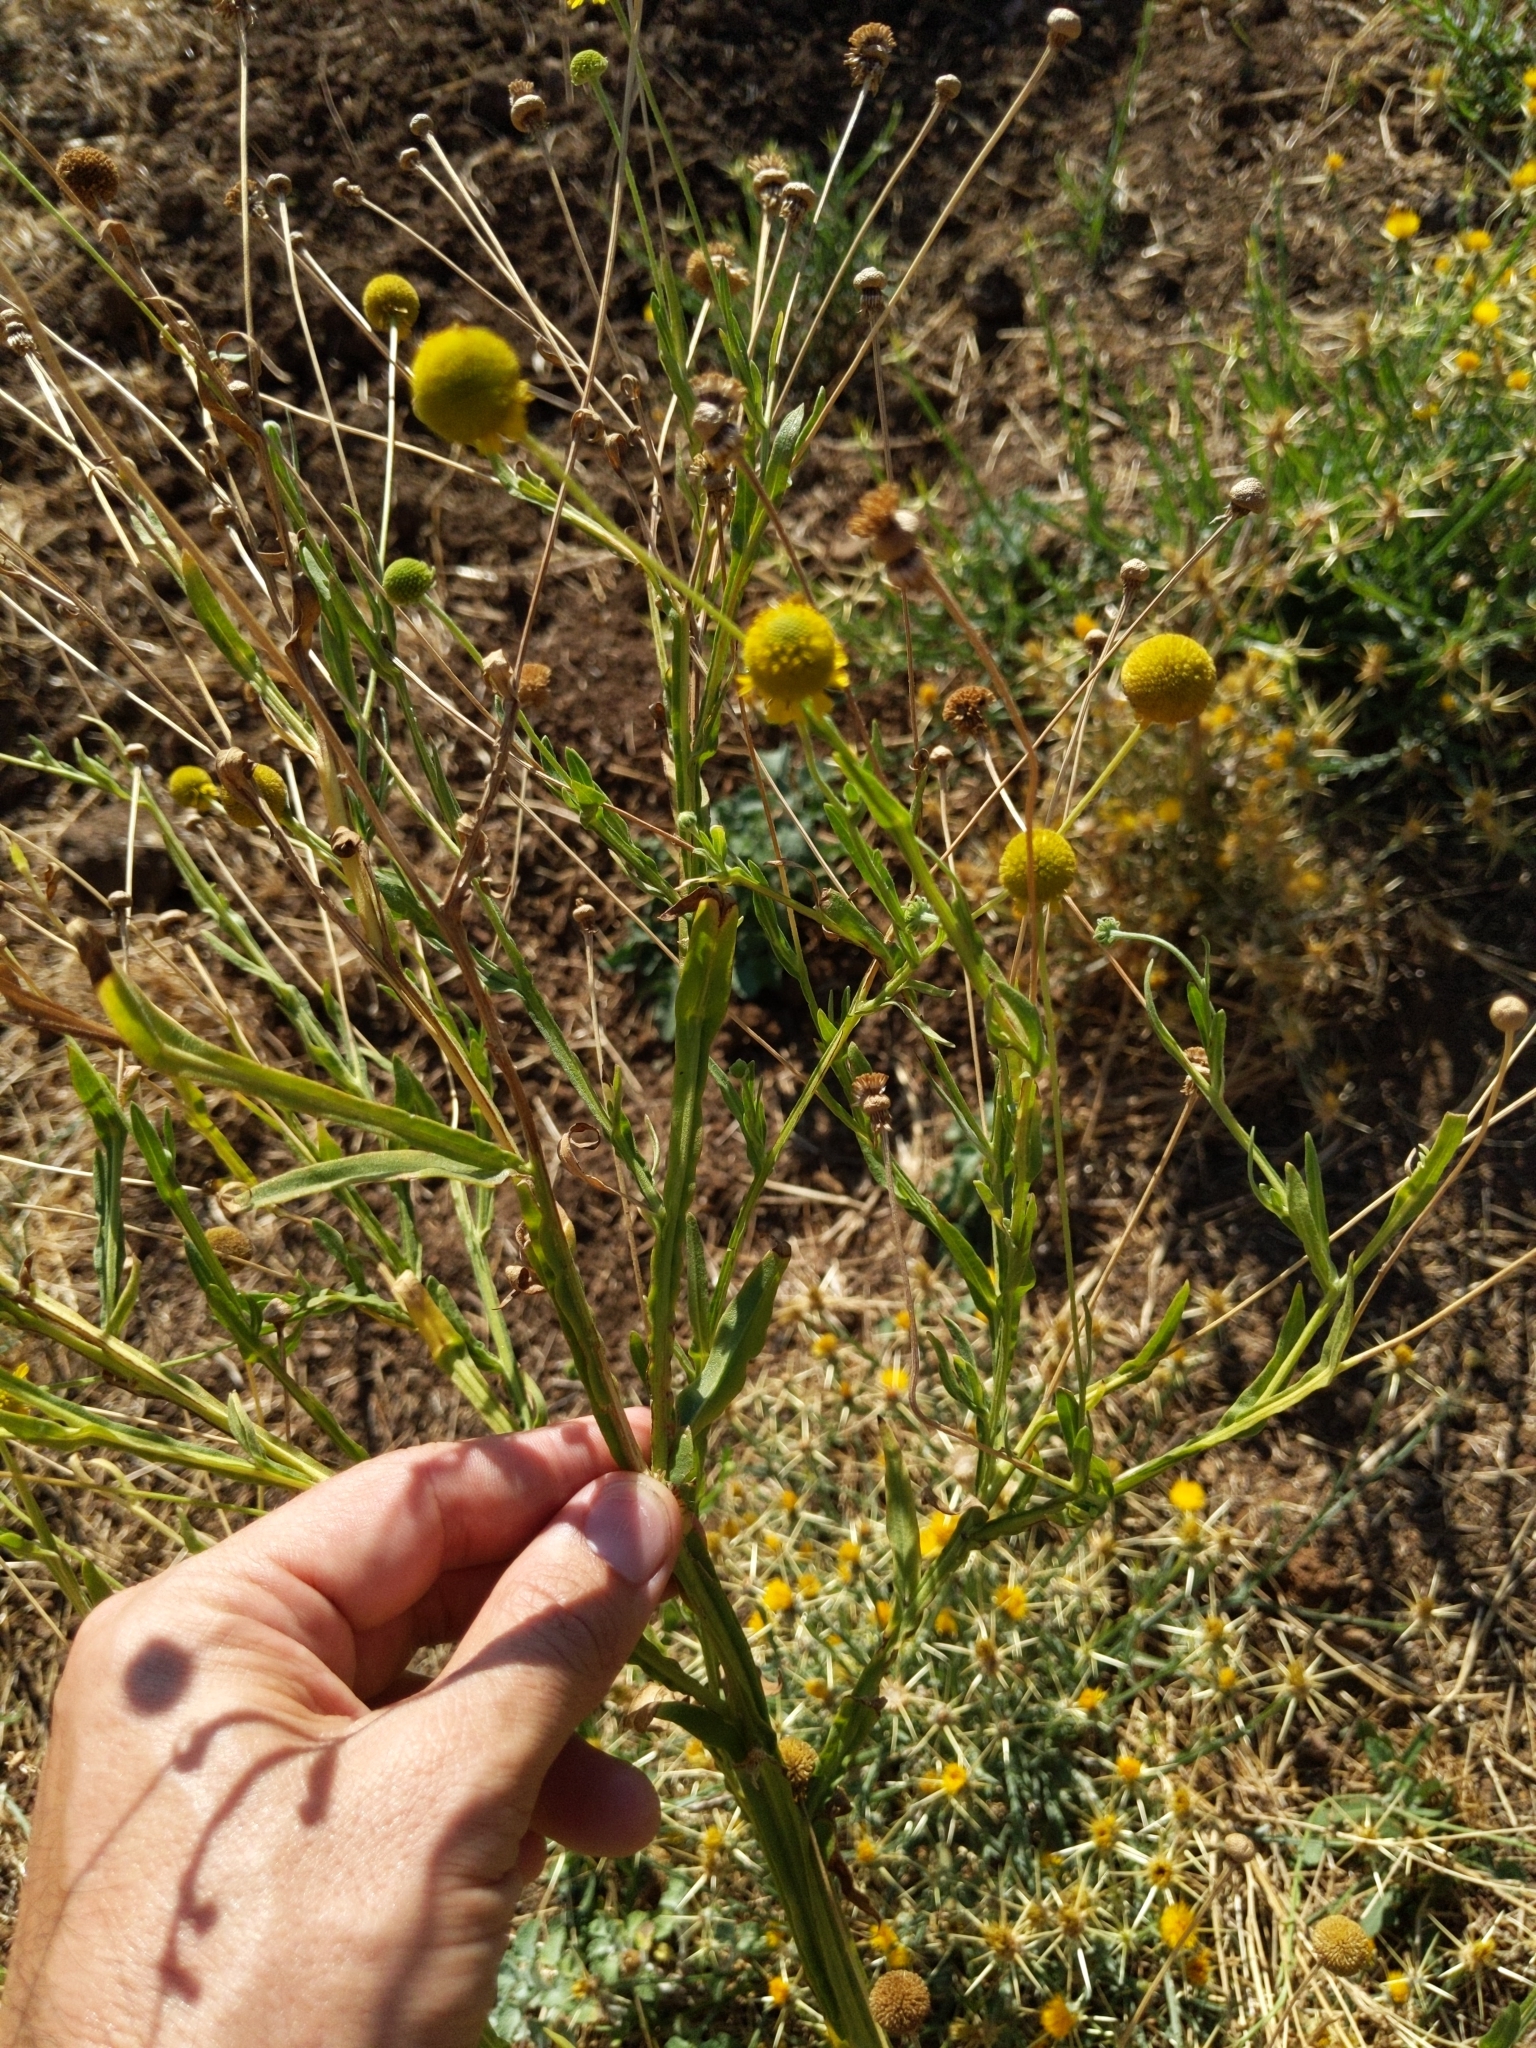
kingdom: Plantae
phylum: Tracheophyta
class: Magnoliopsida
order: Asterales
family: Asteraceae
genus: Helenium
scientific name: Helenium puberulum
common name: Sneezewort
